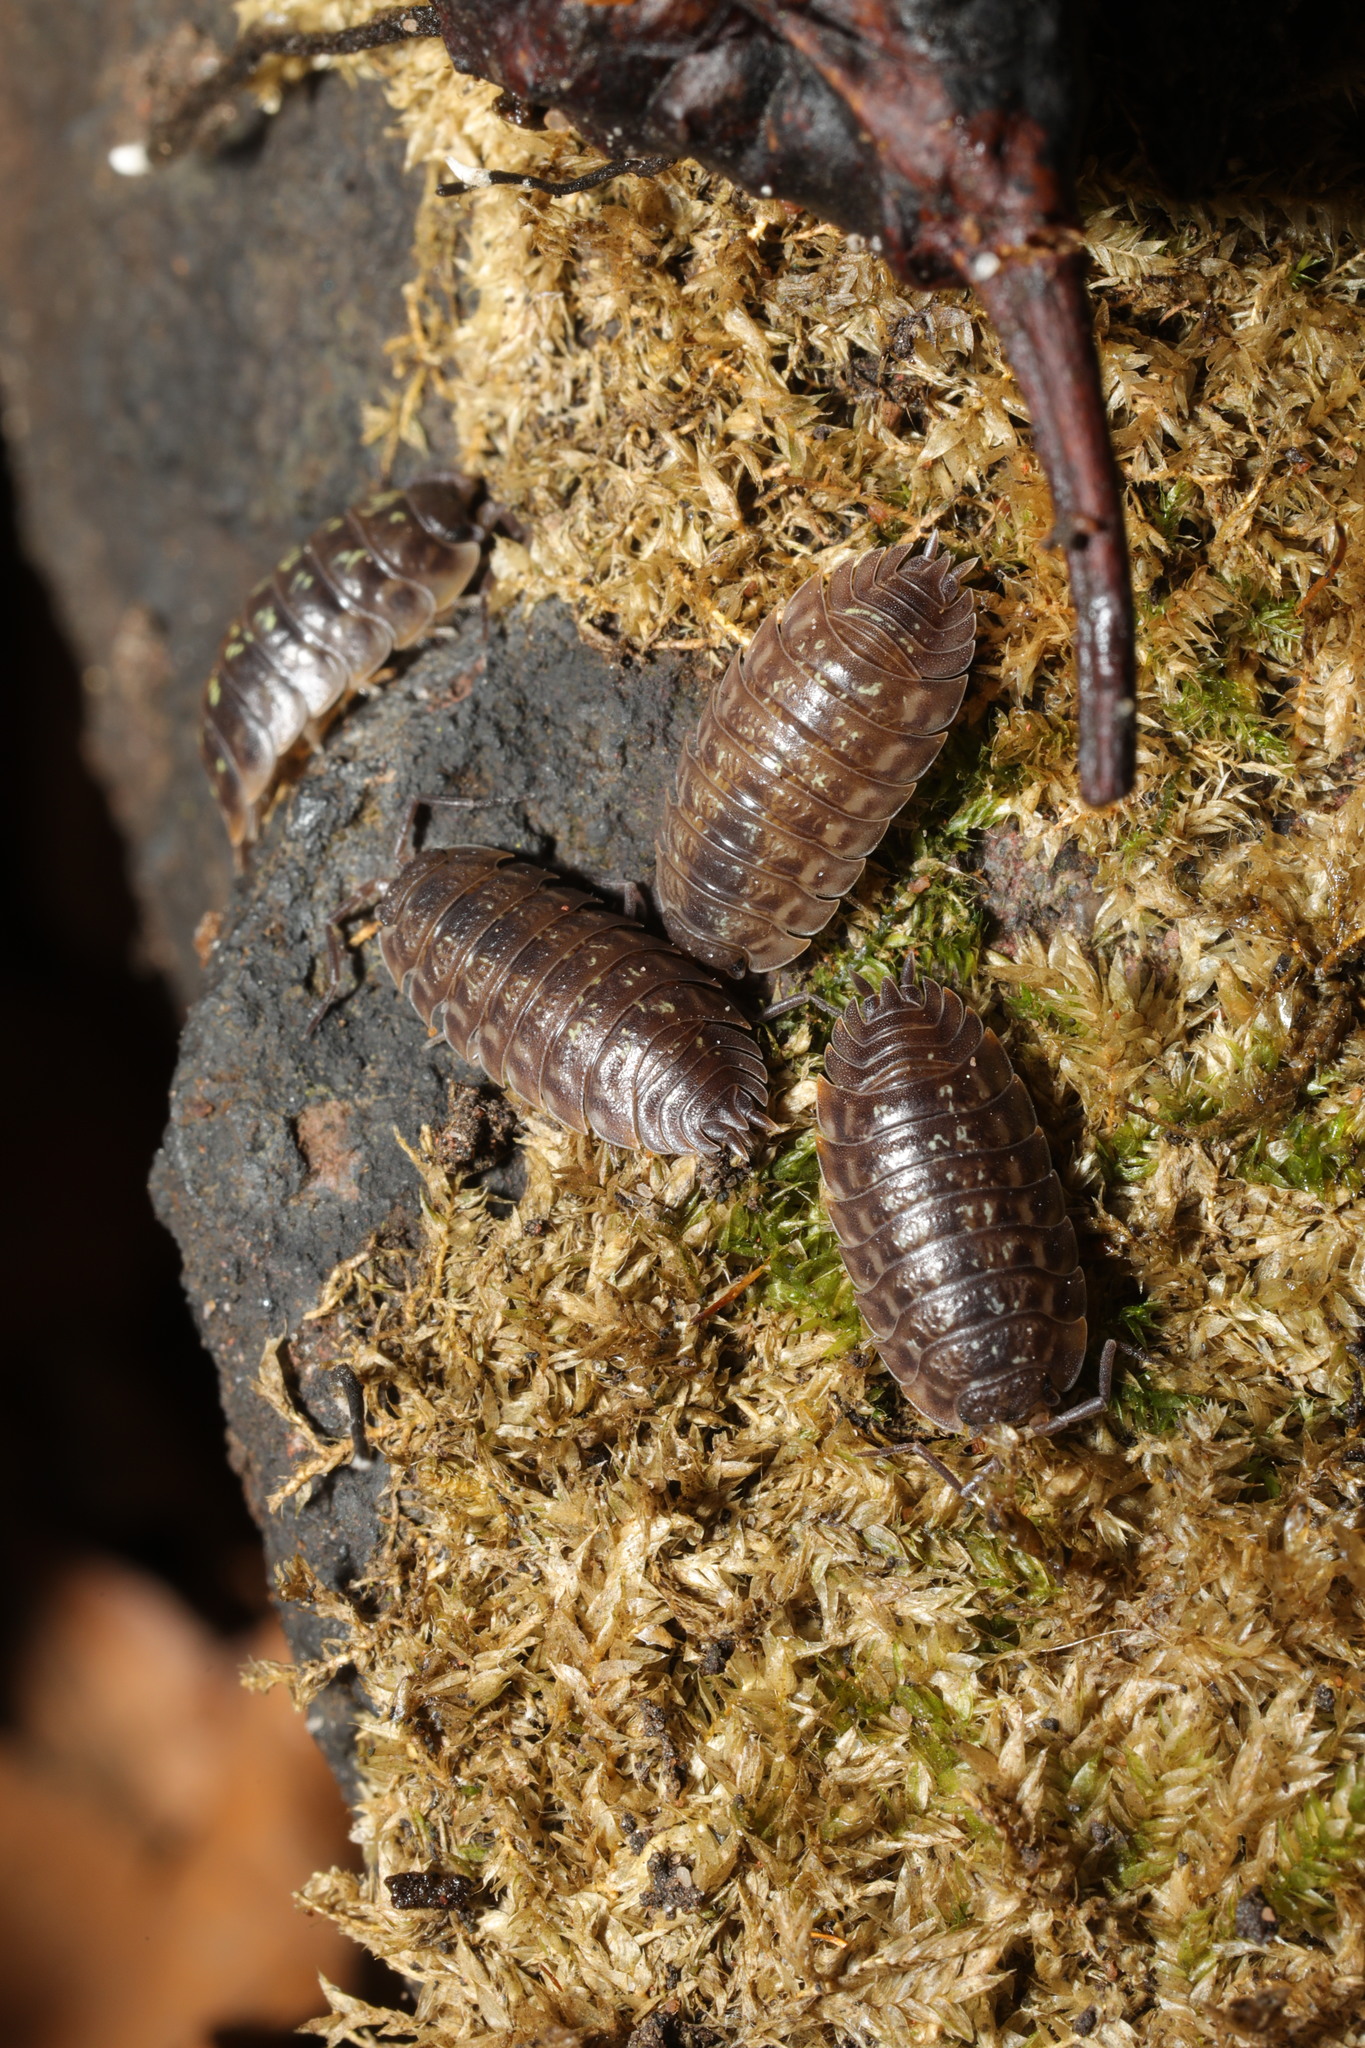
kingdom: Animalia
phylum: Arthropoda
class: Malacostraca
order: Isopoda
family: Oniscidae
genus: Oniscus
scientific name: Oniscus asellus
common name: Common shiny woodlouse
